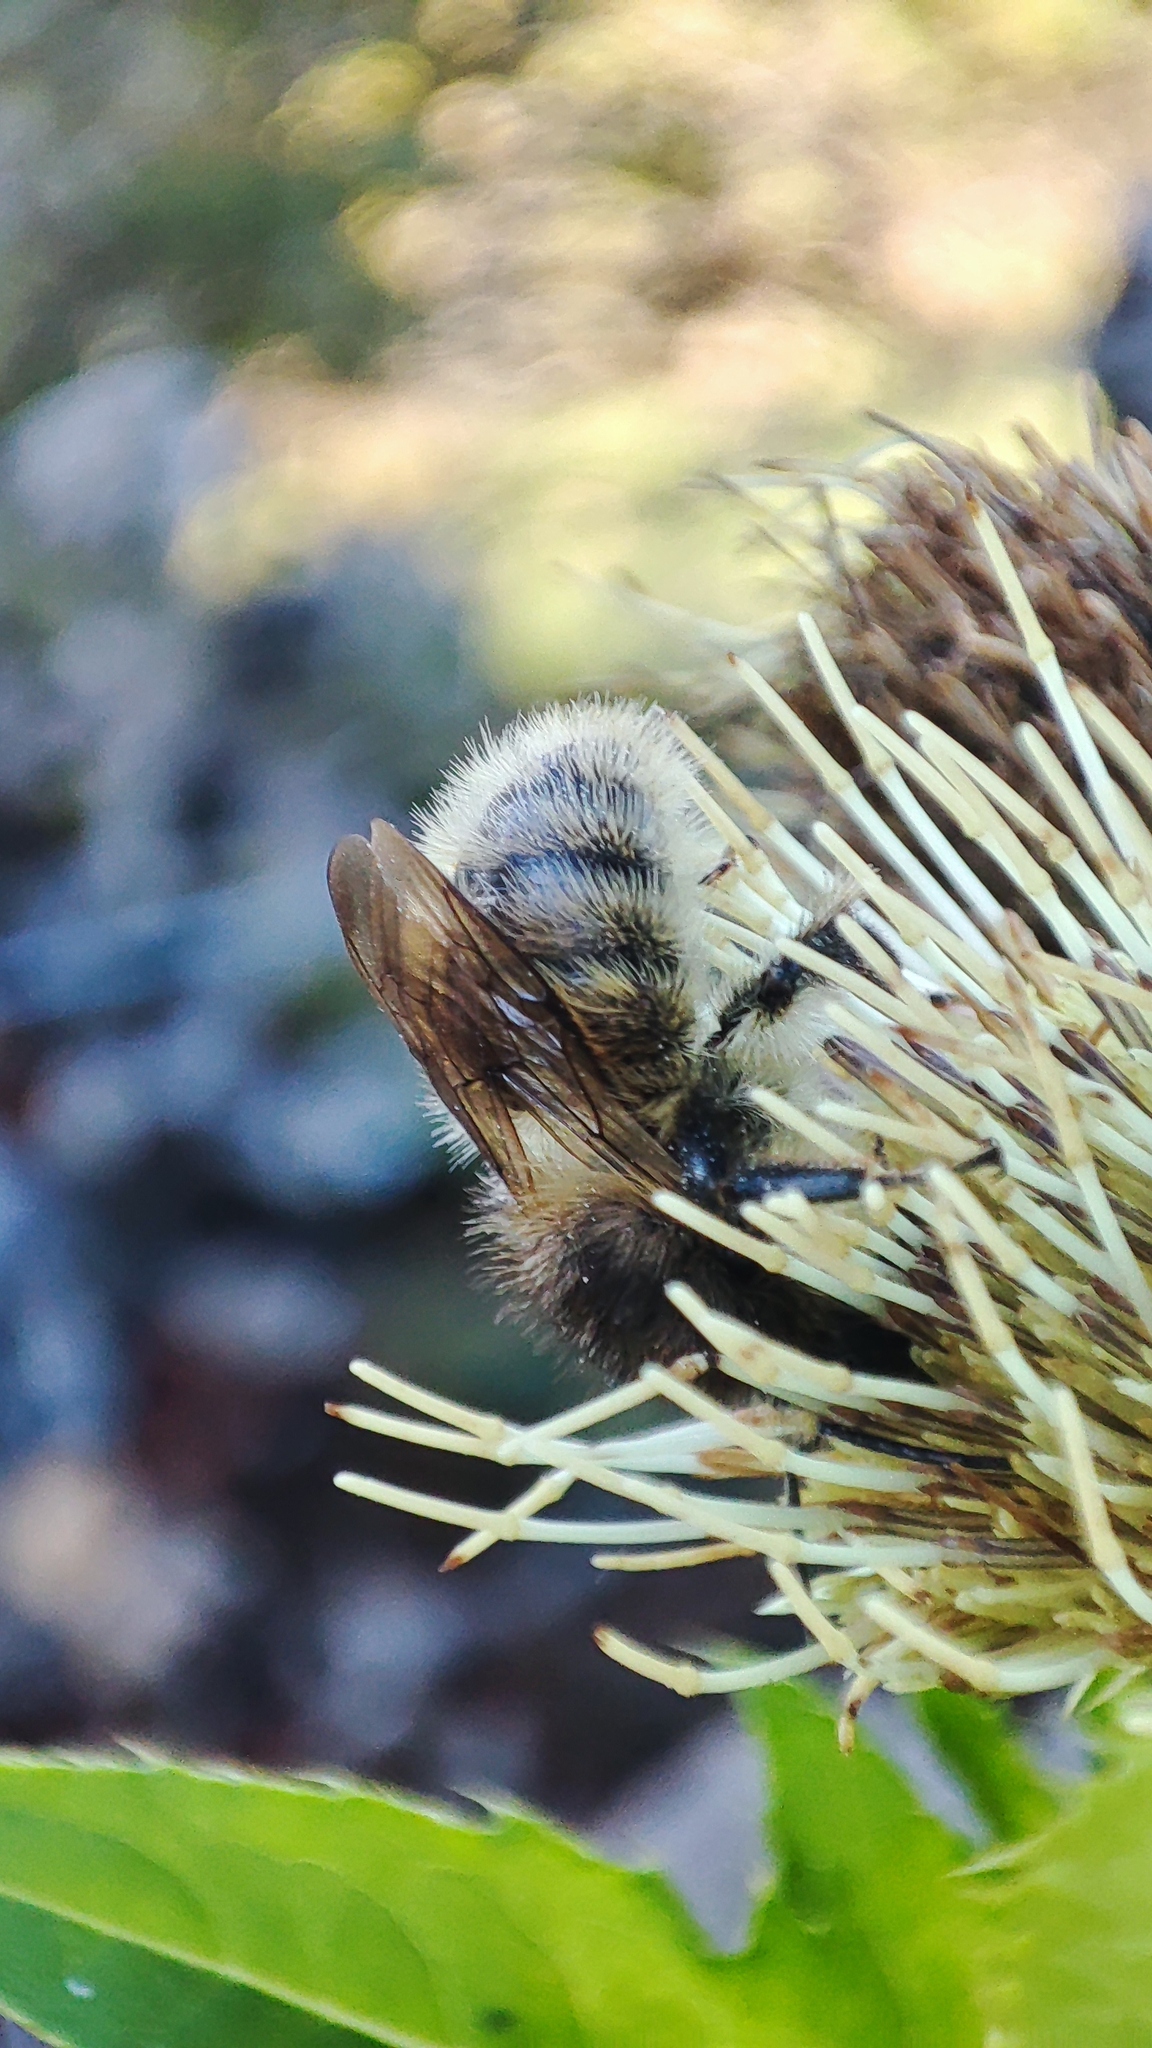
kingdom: Animalia
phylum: Arthropoda
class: Insecta
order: Hymenoptera
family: Apidae
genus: Bombus
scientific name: Bombus humilis
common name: Brown-banded carder-bee
